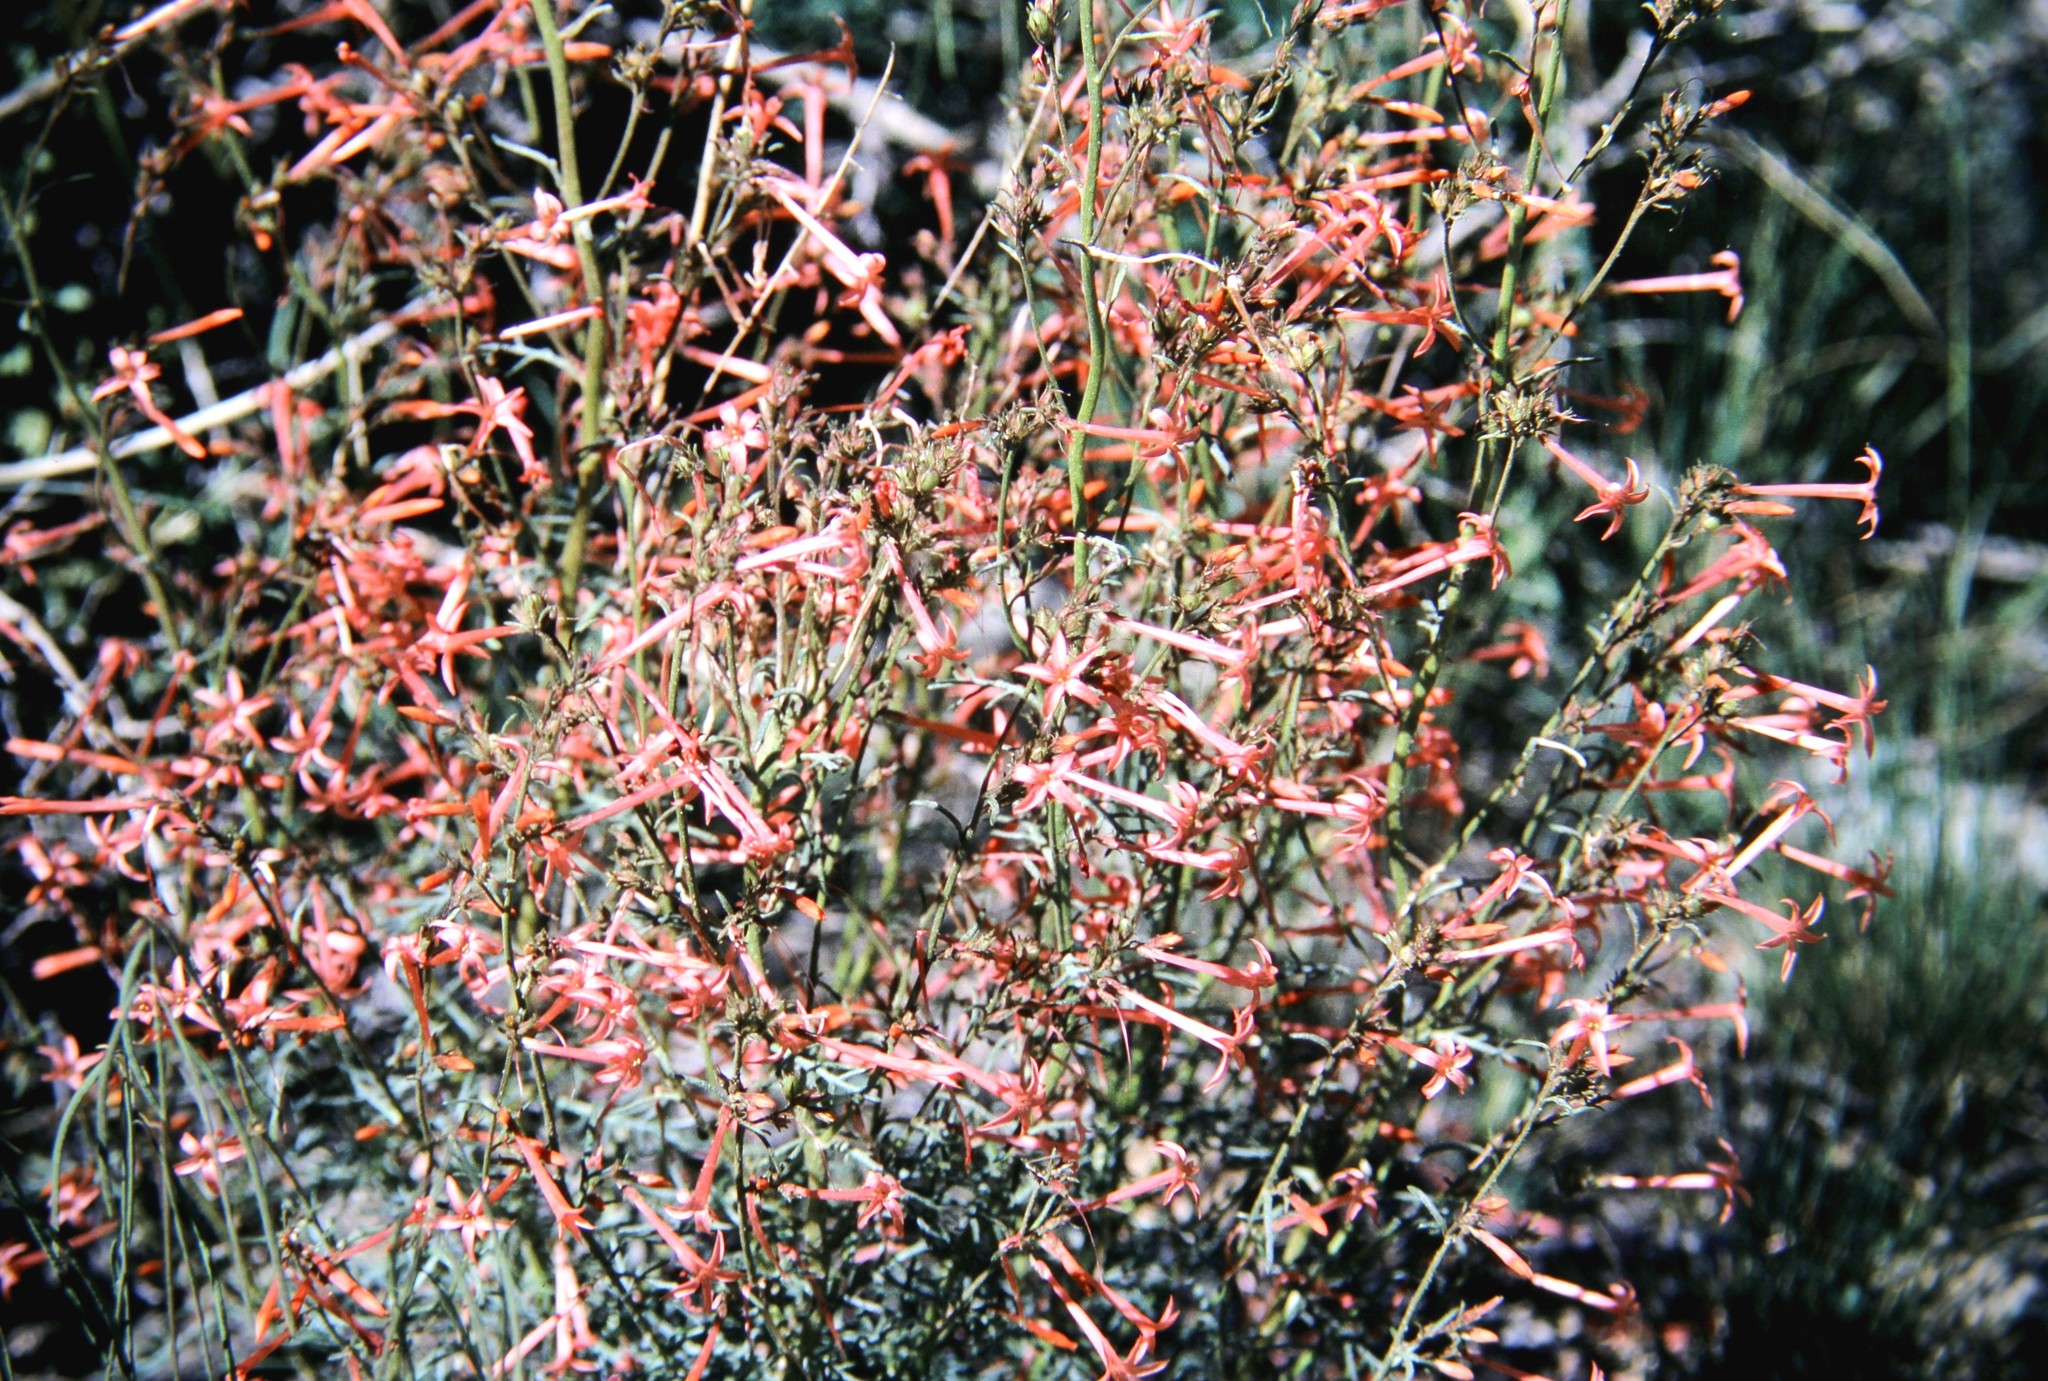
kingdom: Plantae
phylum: Tracheophyta
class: Magnoliopsida
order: Ericales
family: Polemoniaceae
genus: Ipomopsis
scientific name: Ipomopsis aggregata
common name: Scarlet gilia
